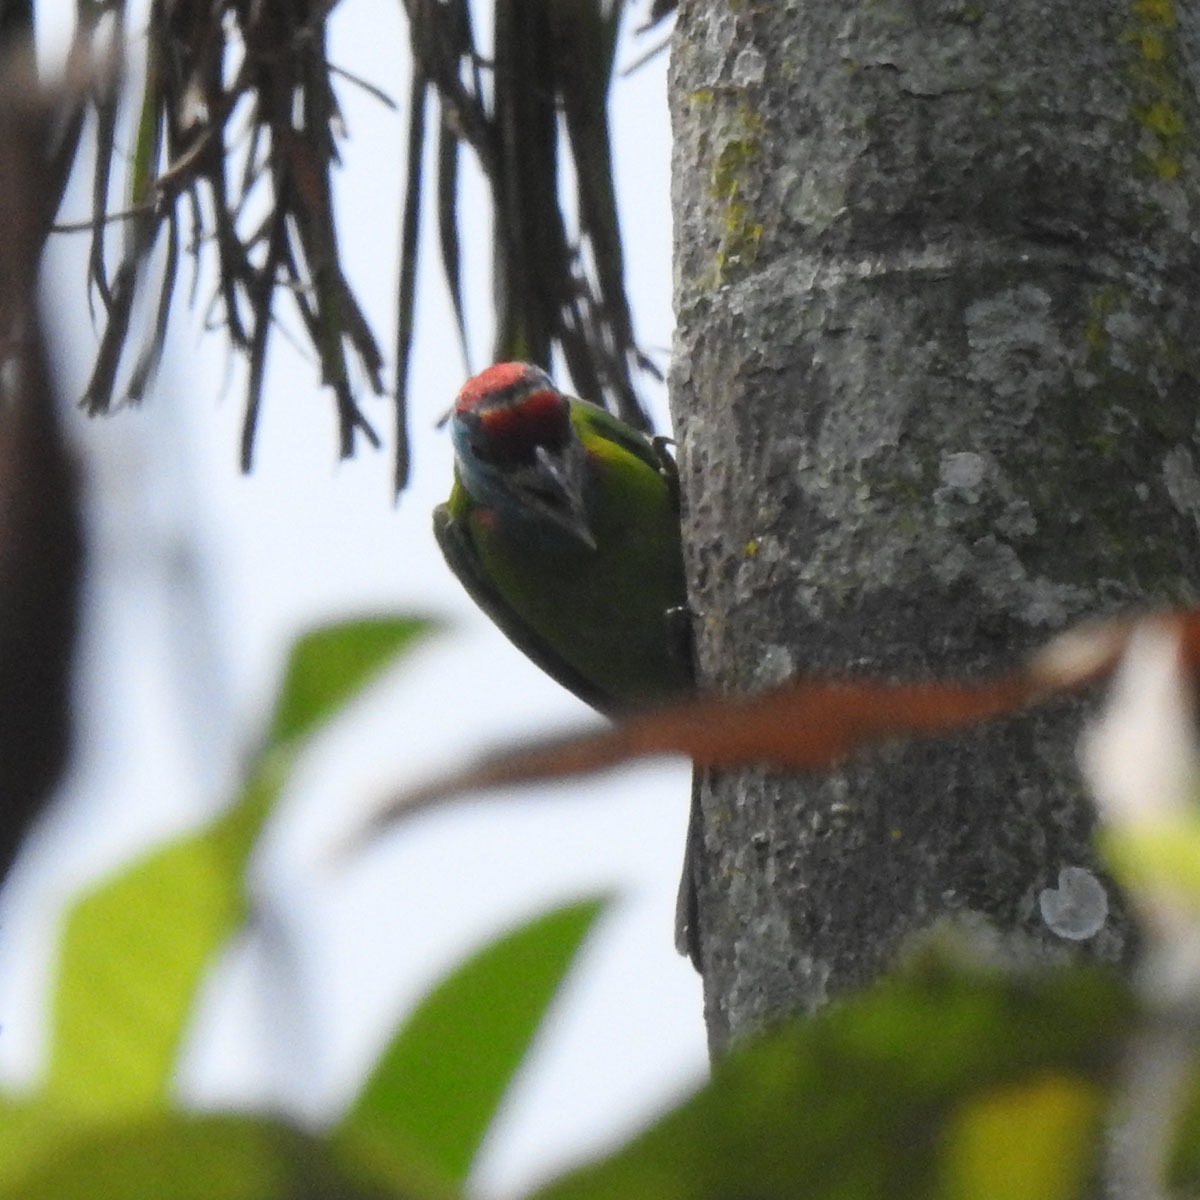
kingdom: Animalia
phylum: Chordata
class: Aves
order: Piciformes
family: Megalaimidae
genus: Psilopogon
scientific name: Psilopogon asiaticus
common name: Blue-throated barbet
